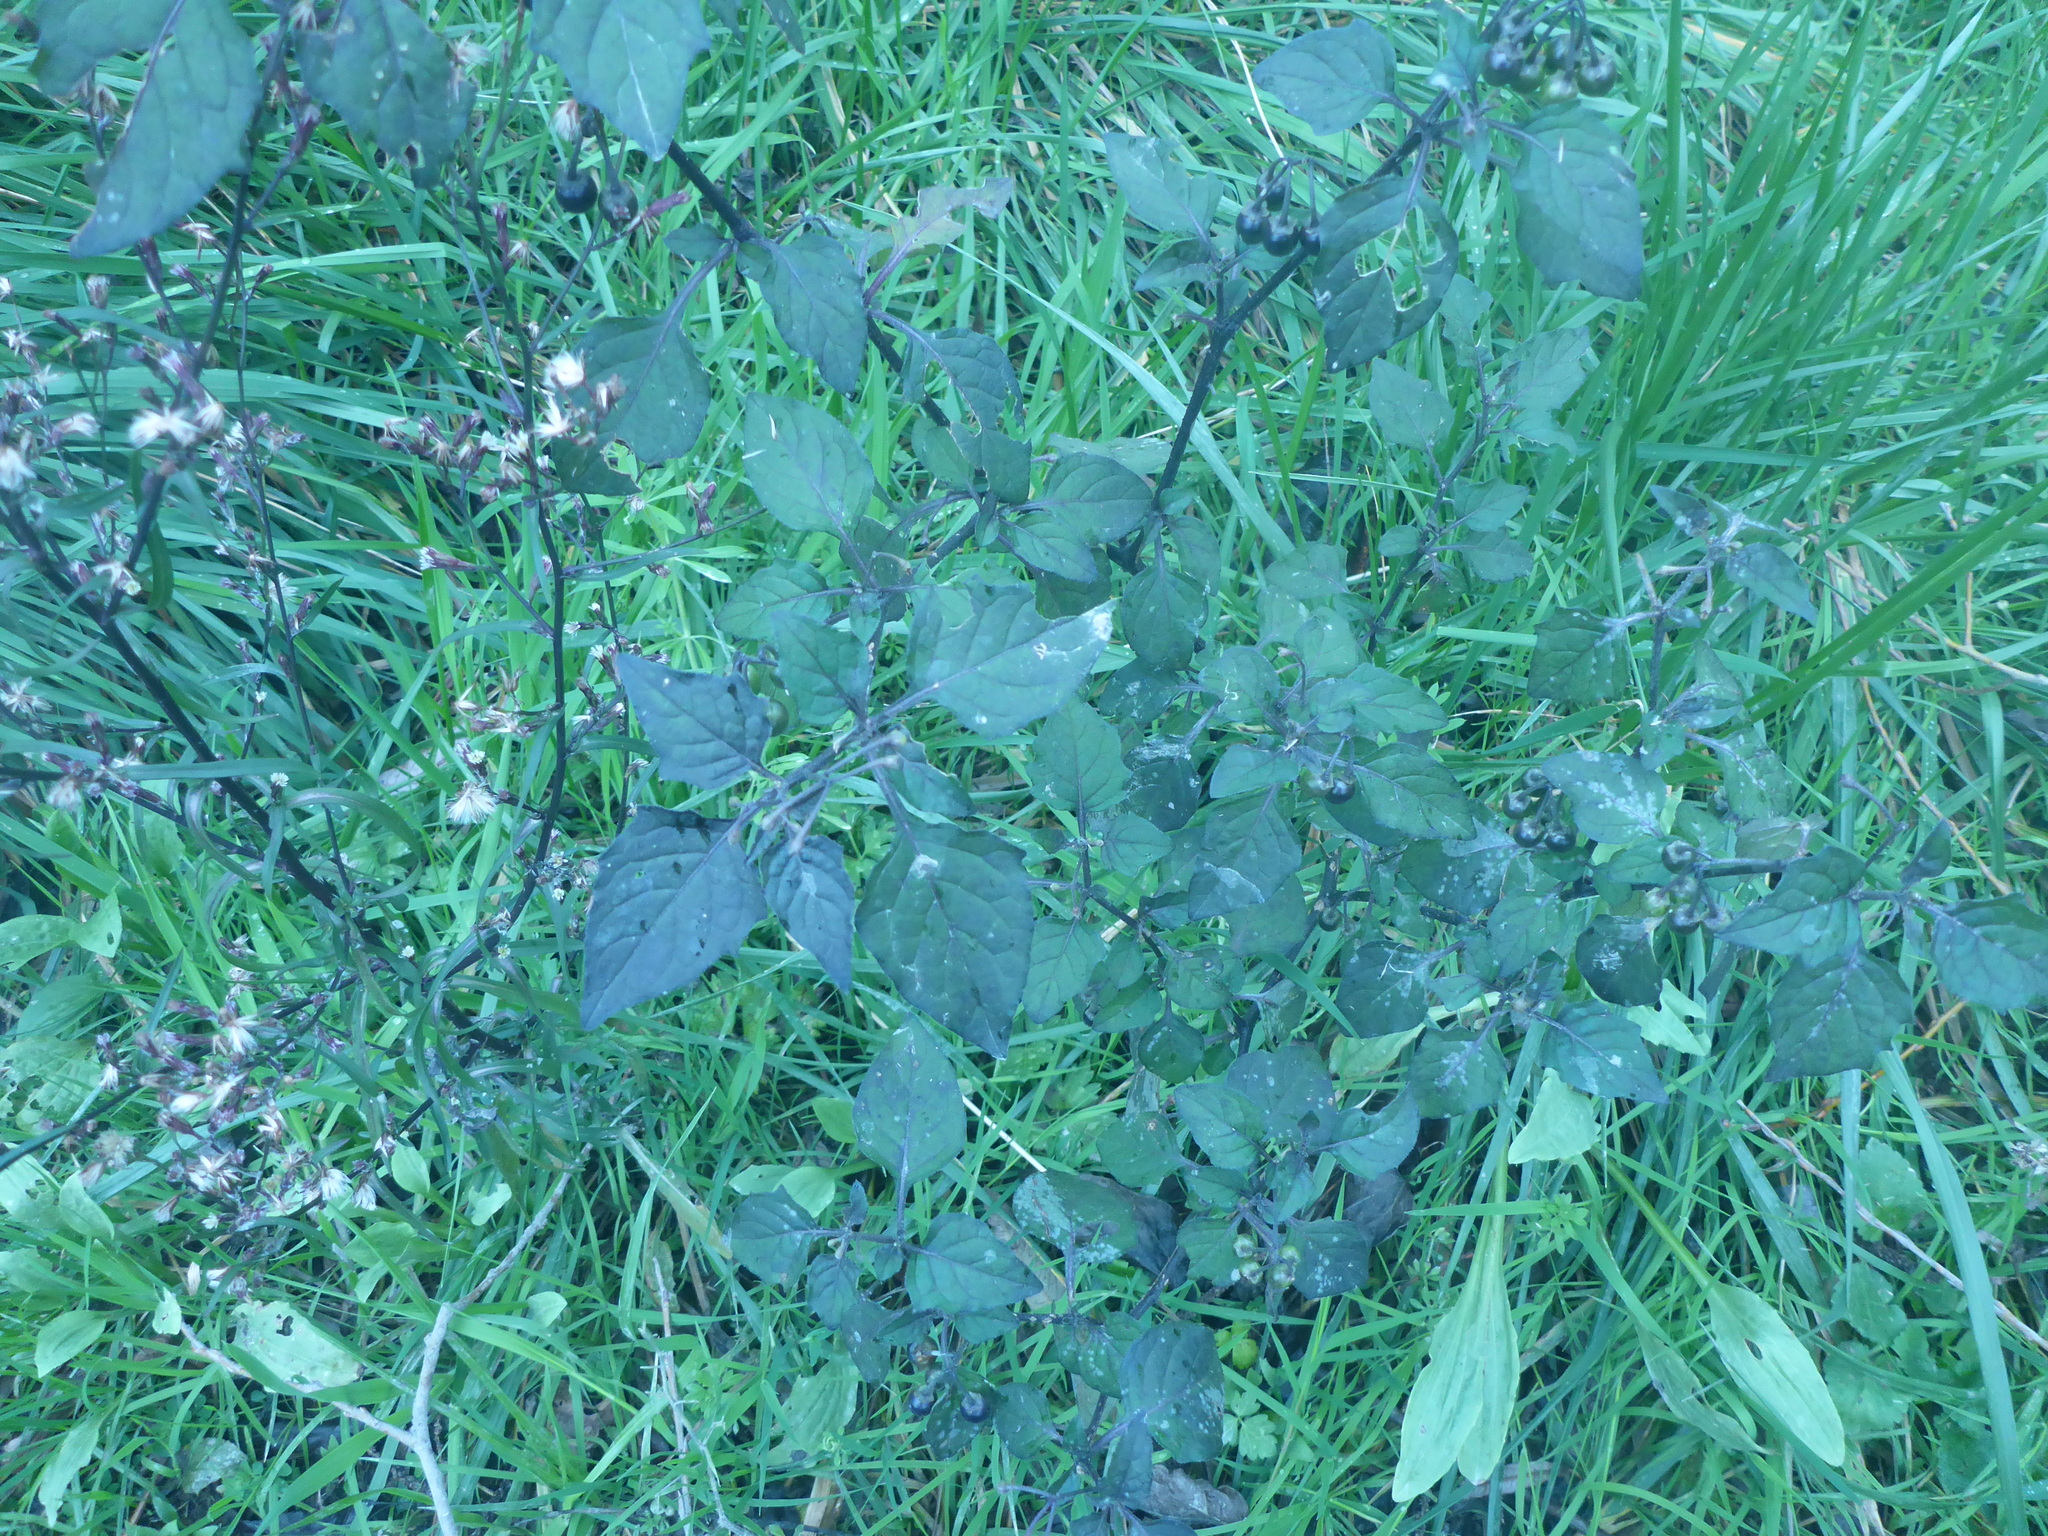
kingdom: Plantae
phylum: Tracheophyta
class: Magnoliopsida
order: Solanales
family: Solanaceae
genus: Solanum
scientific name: Solanum nigrum
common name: Black nightshade
